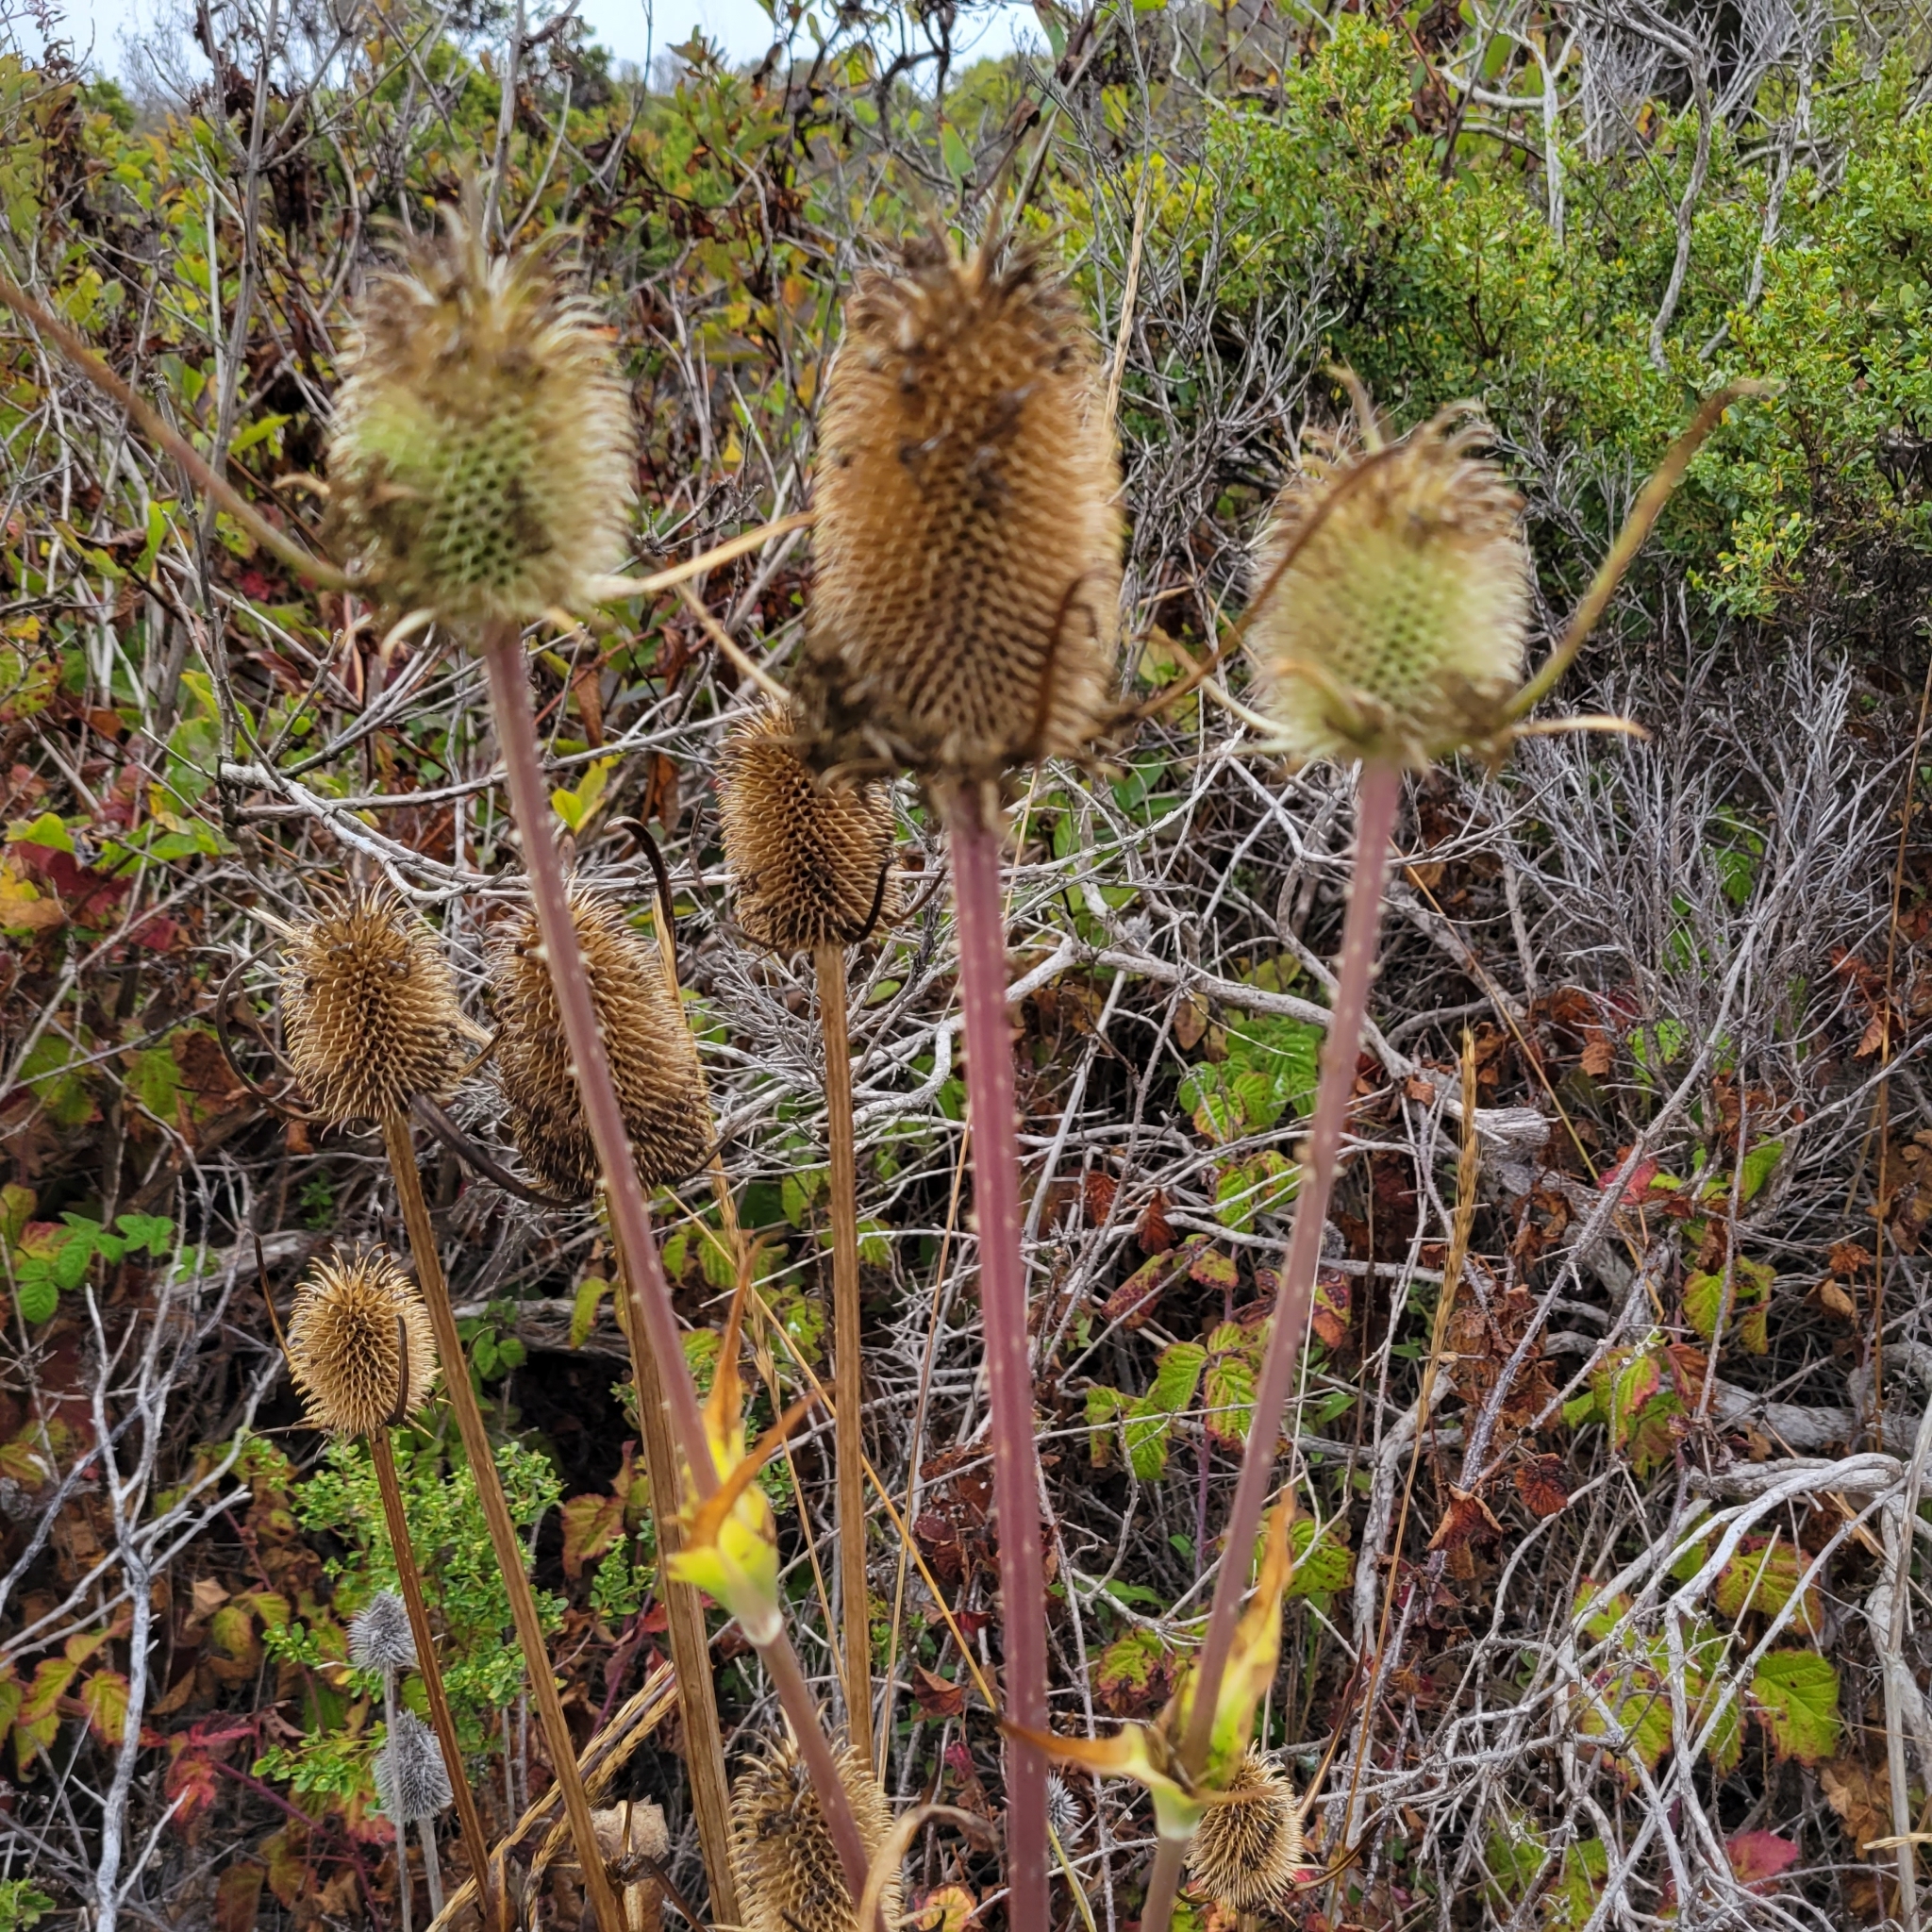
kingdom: Plantae
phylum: Tracheophyta
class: Magnoliopsida
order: Dipsacales
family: Caprifoliaceae
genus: Dipsacus
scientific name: Dipsacus sativus
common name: Fuller's teasel
